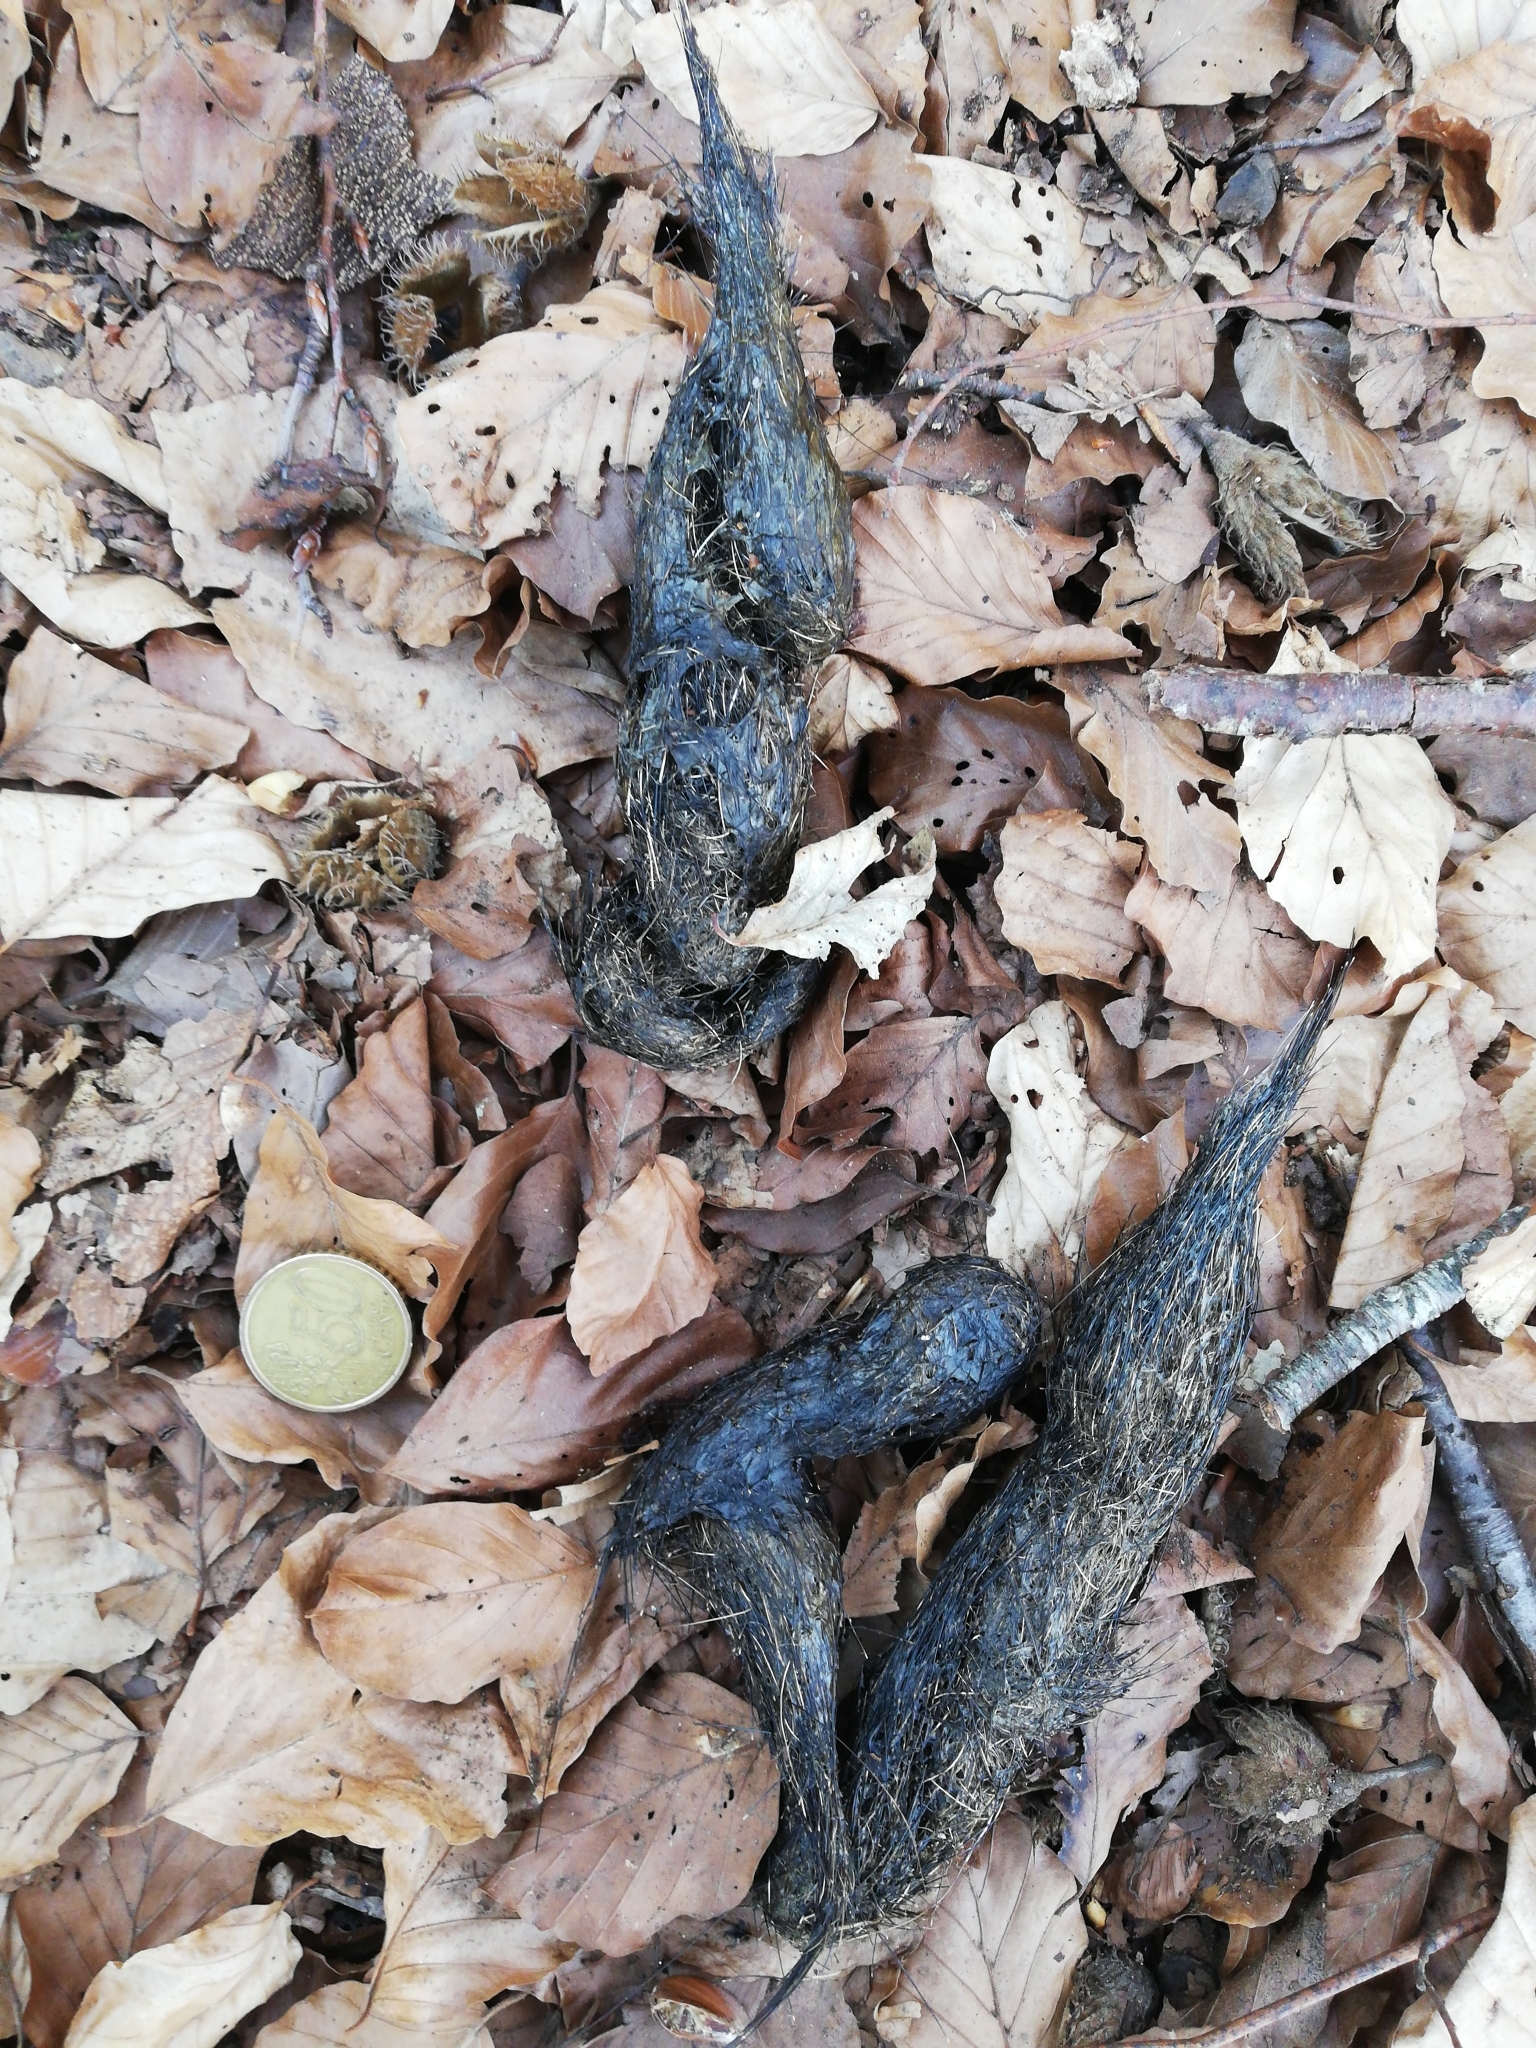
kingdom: Animalia
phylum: Chordata
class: Mammalia
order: Carnivora
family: Canidae
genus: Canis
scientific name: Canis lupus
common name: Gray wolf
